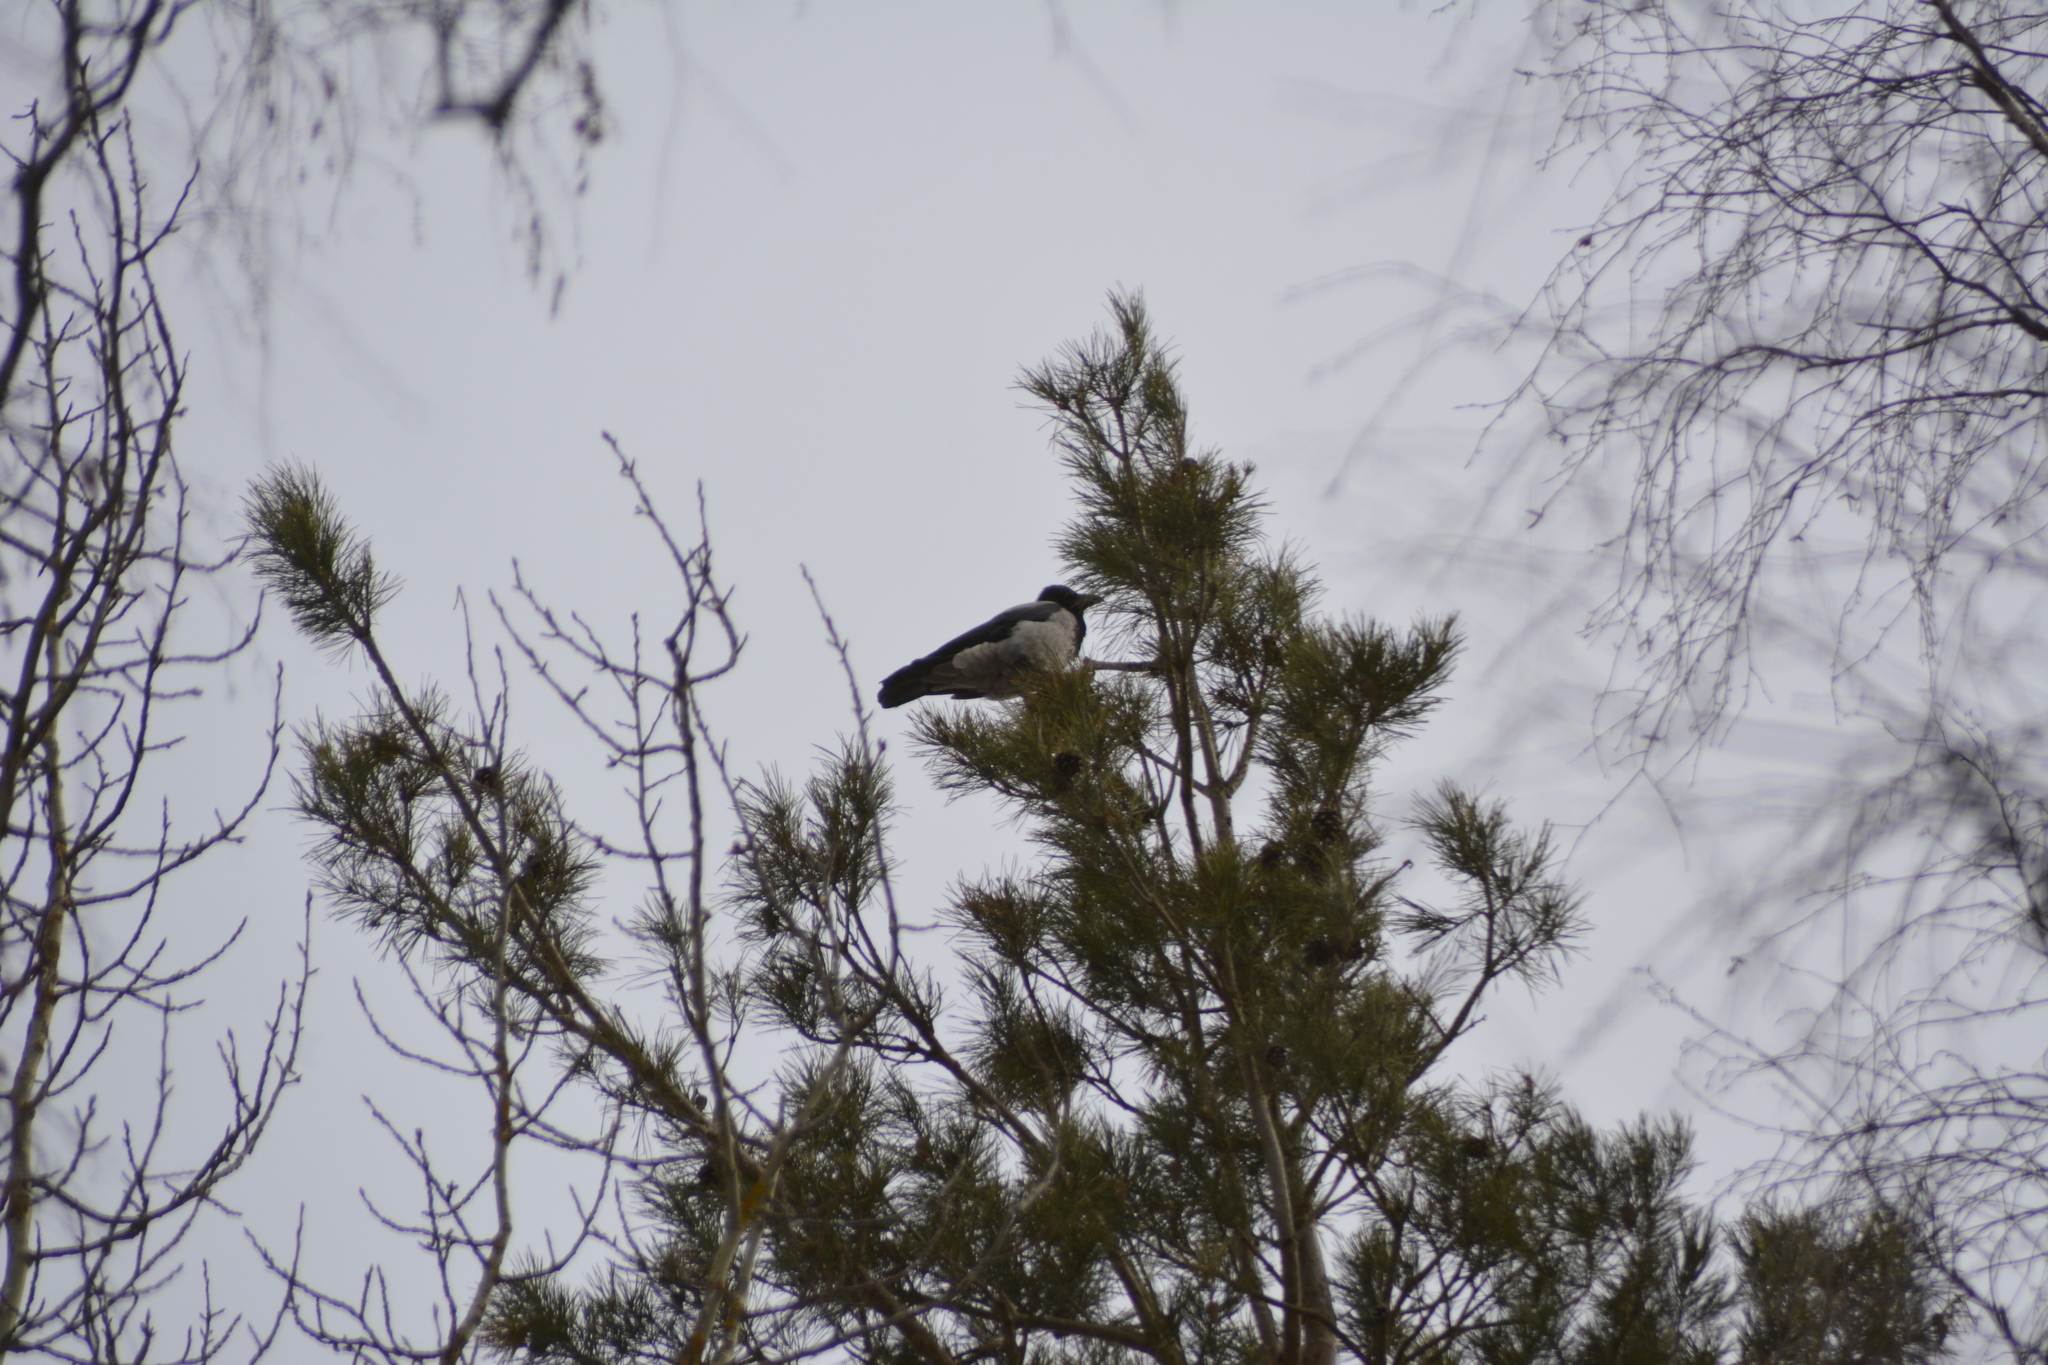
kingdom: Animalia
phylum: Chordata
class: Aves
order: Passeriformes
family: Corvidae
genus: Corvus
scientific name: Corvus cornix
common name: Hooded crow
